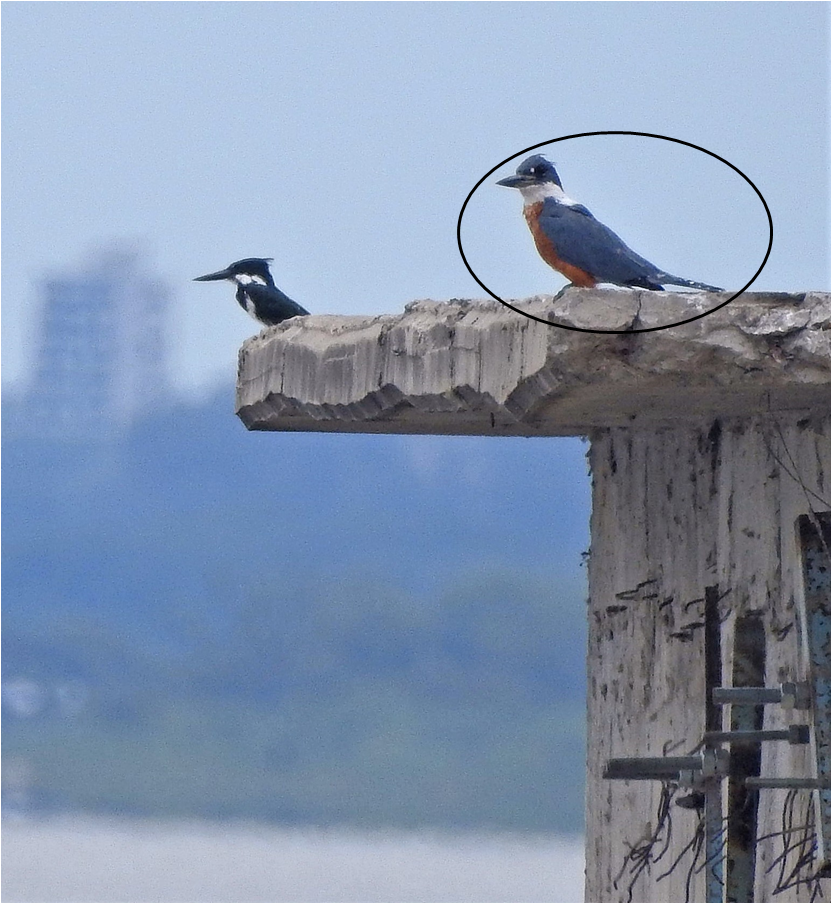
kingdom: Animalia
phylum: Chordata
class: Aves
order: Coraciiformes
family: Alcedinidae
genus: Megaceryle
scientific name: Megaceryle torquata
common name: Ringed kingfisher
